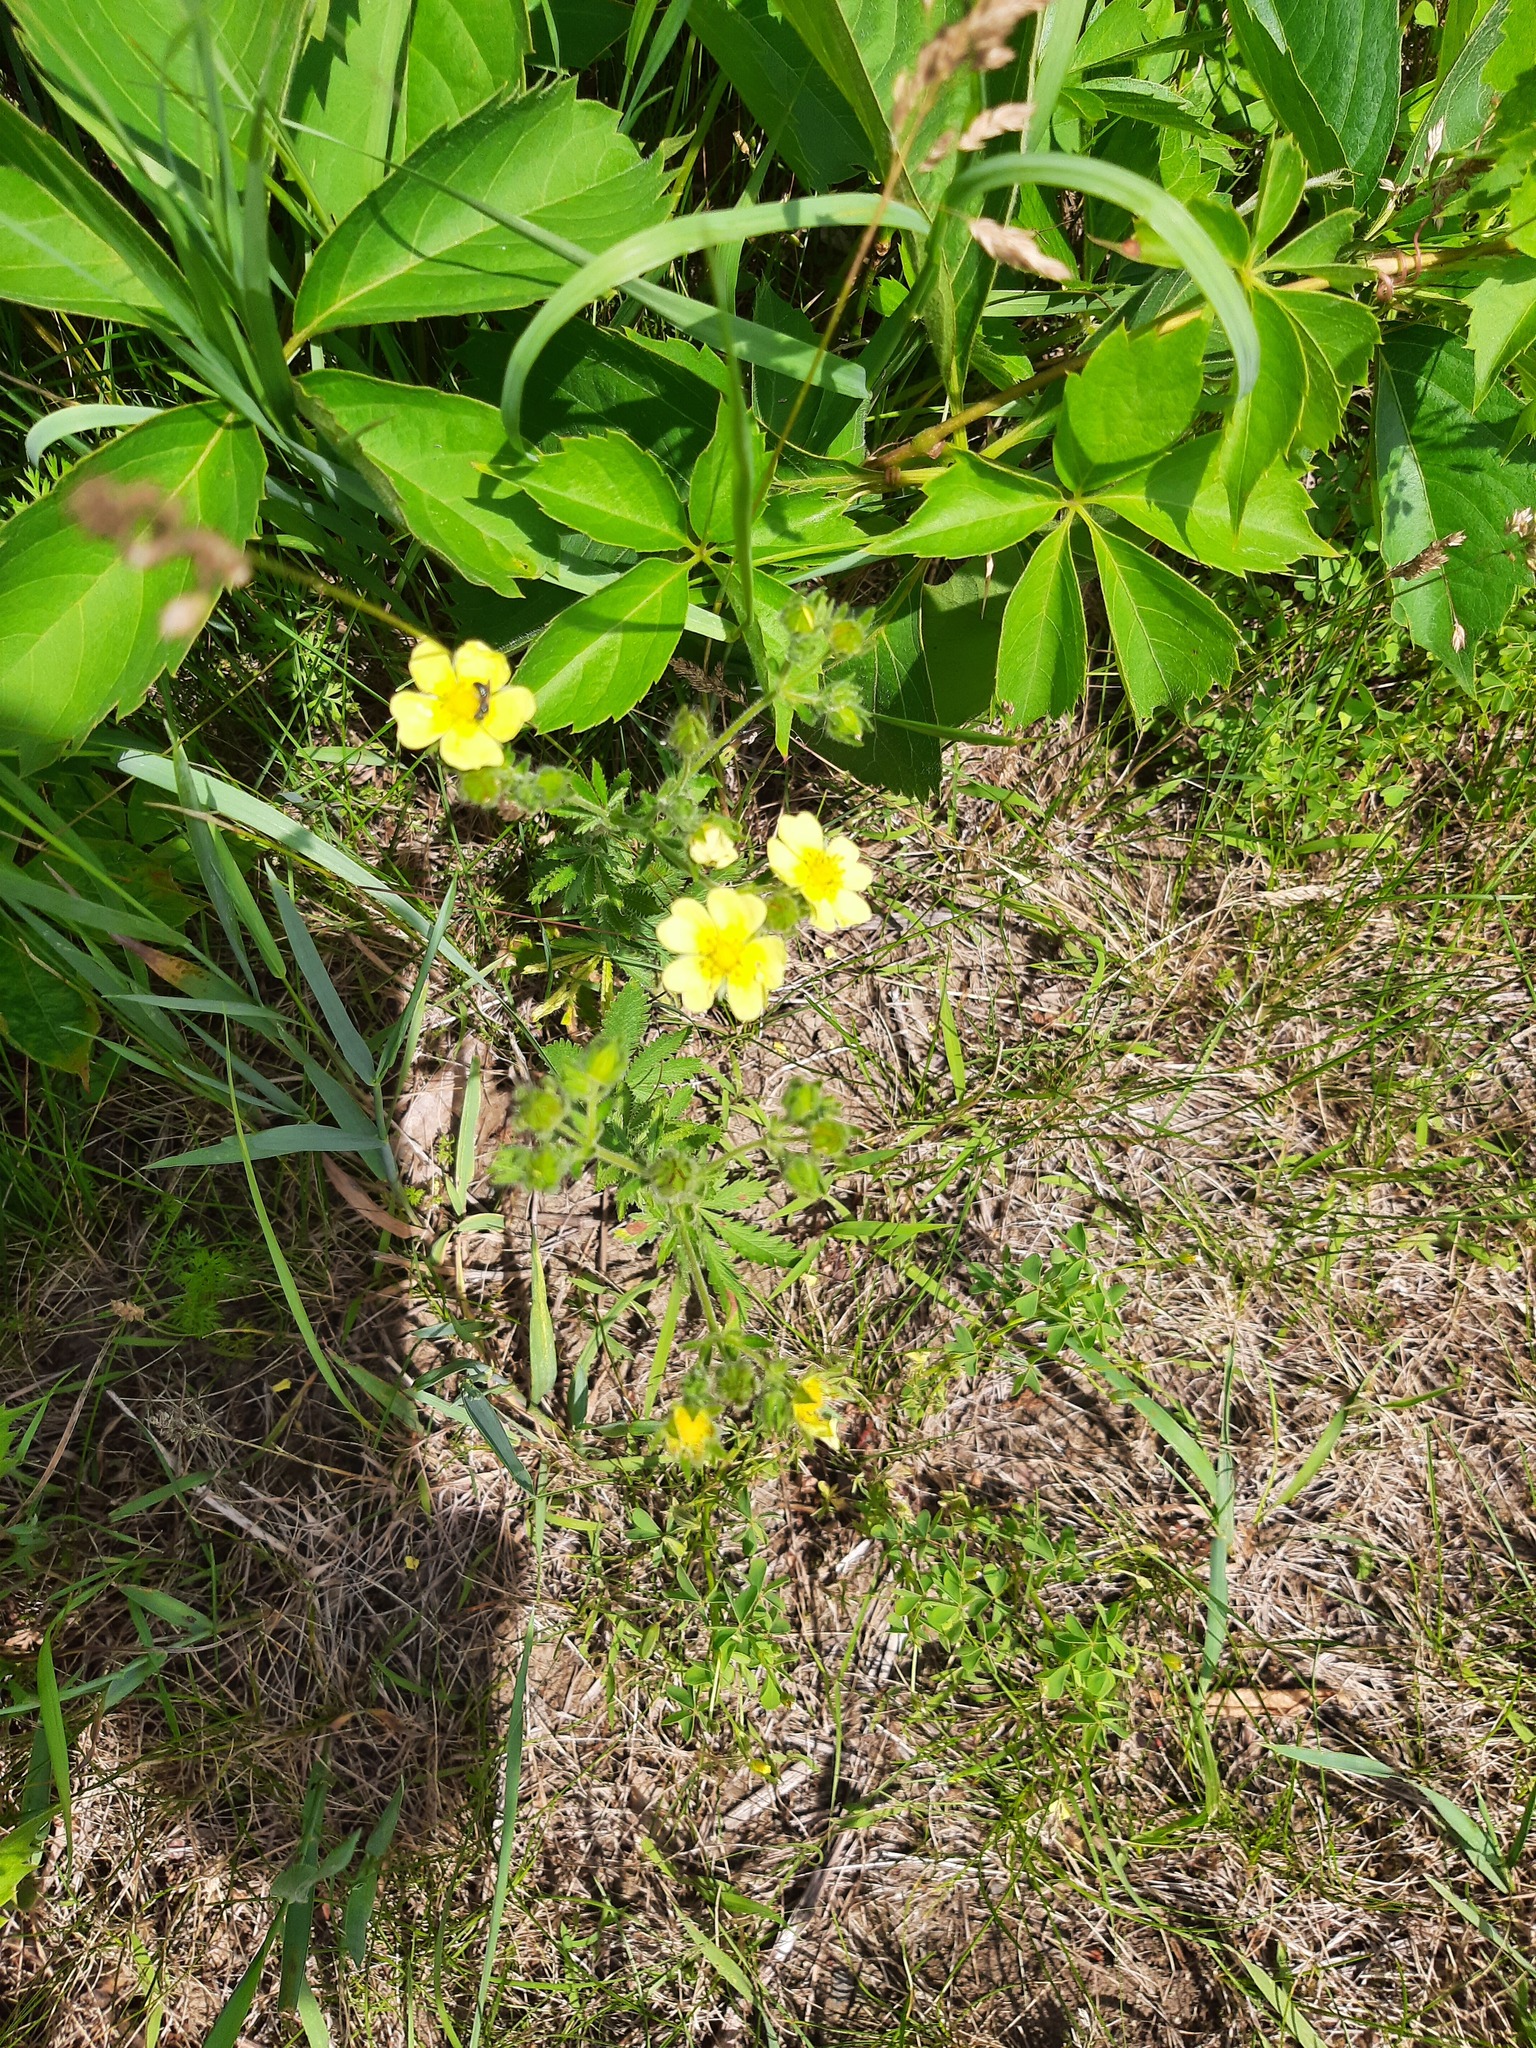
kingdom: Plantae
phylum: Tracheophyta
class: Magnoliopsida
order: Rosales
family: Rosaceae
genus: Potentilla
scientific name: Potentilla recta
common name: Sulphur cinquefoil
